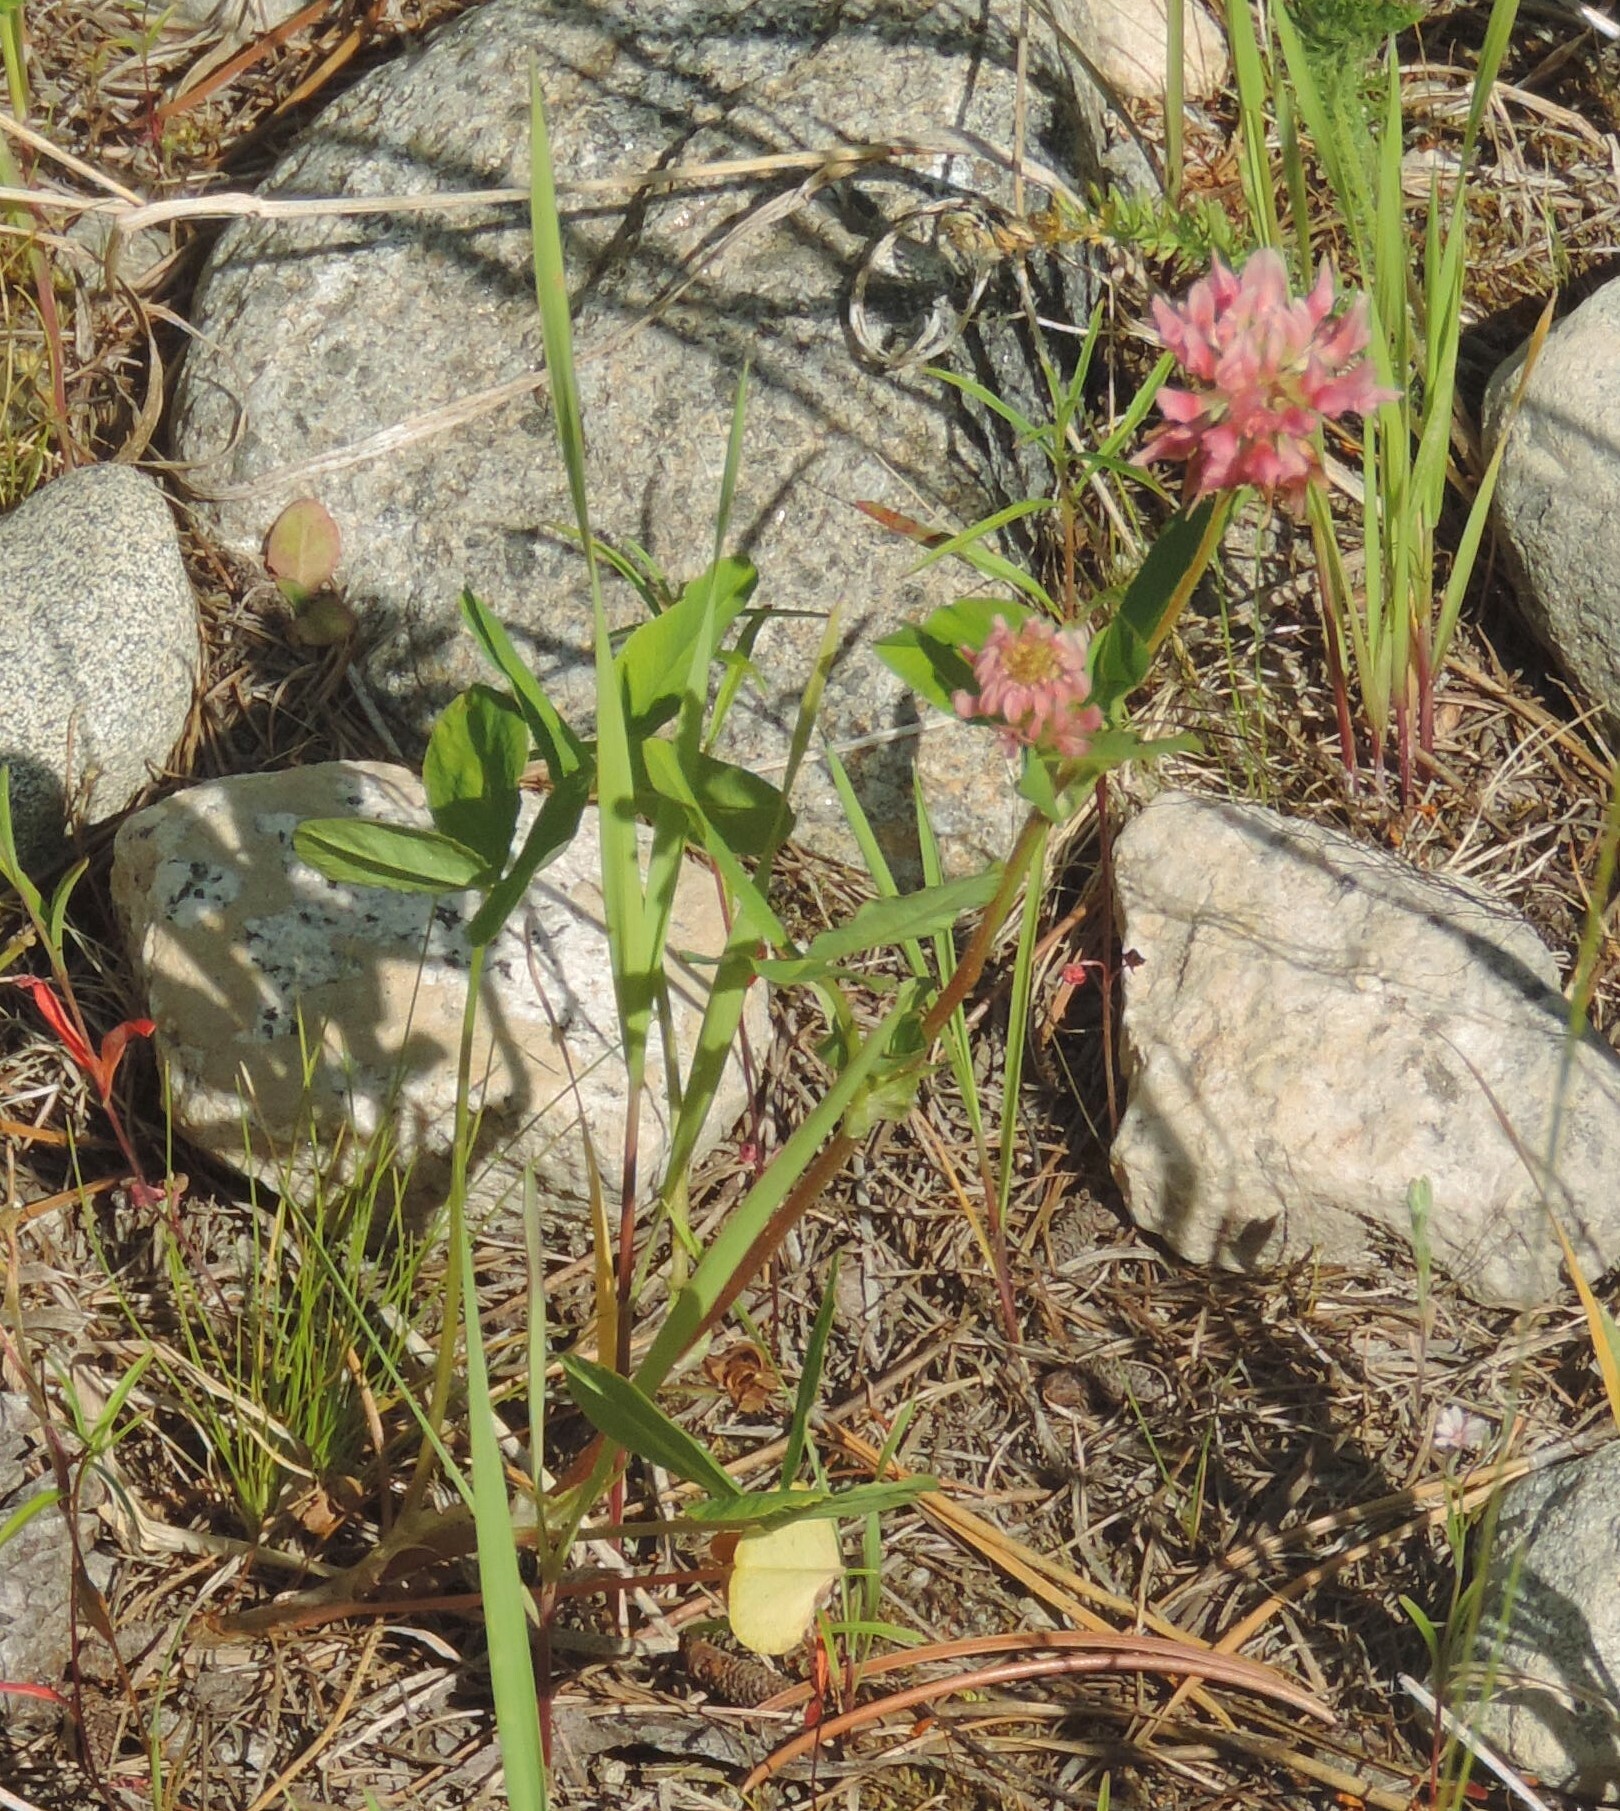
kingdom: Plantae
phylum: Tracheophyta
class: Magnoliopsida
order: Fabales
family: Fabaceae
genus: Trifolium
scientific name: Trifolium hybridum
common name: Alsike clover
